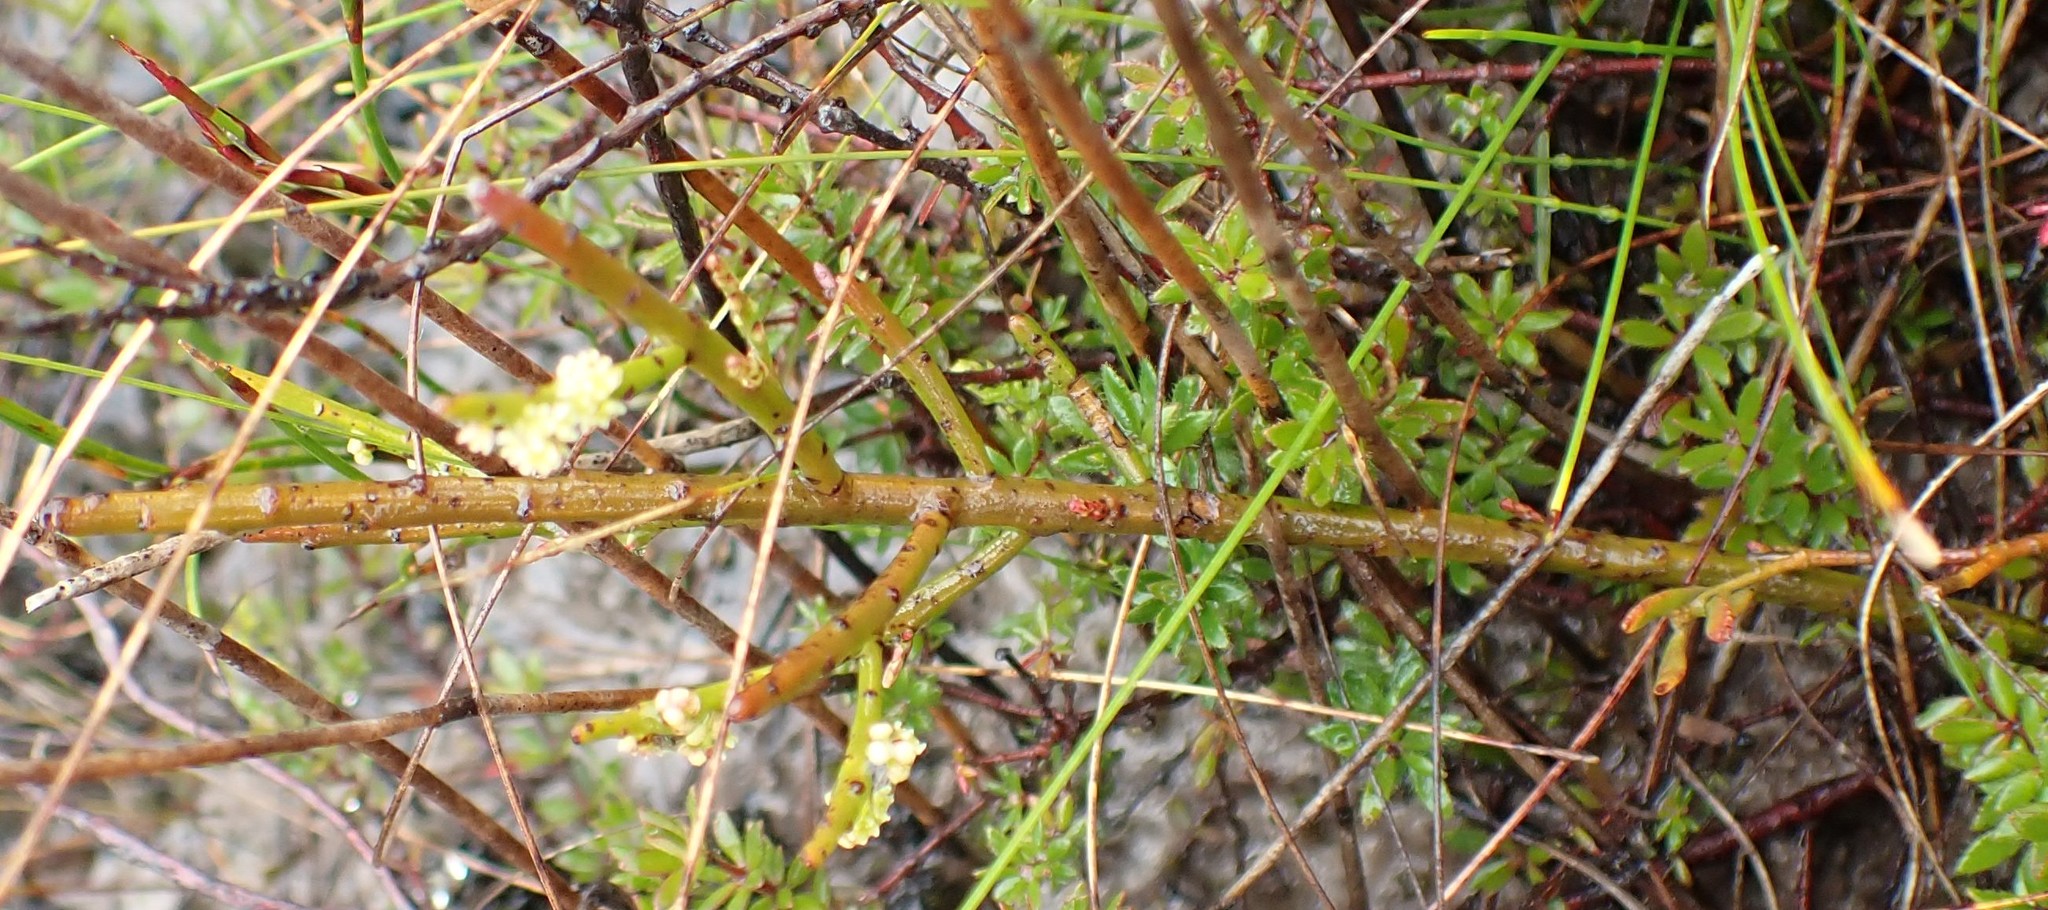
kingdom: Plantae
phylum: Tracheophyta
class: Magnoliopsida
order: Santalales
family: Amphorogynaceae
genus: Leptomeria
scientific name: Leptomeria glomerata
